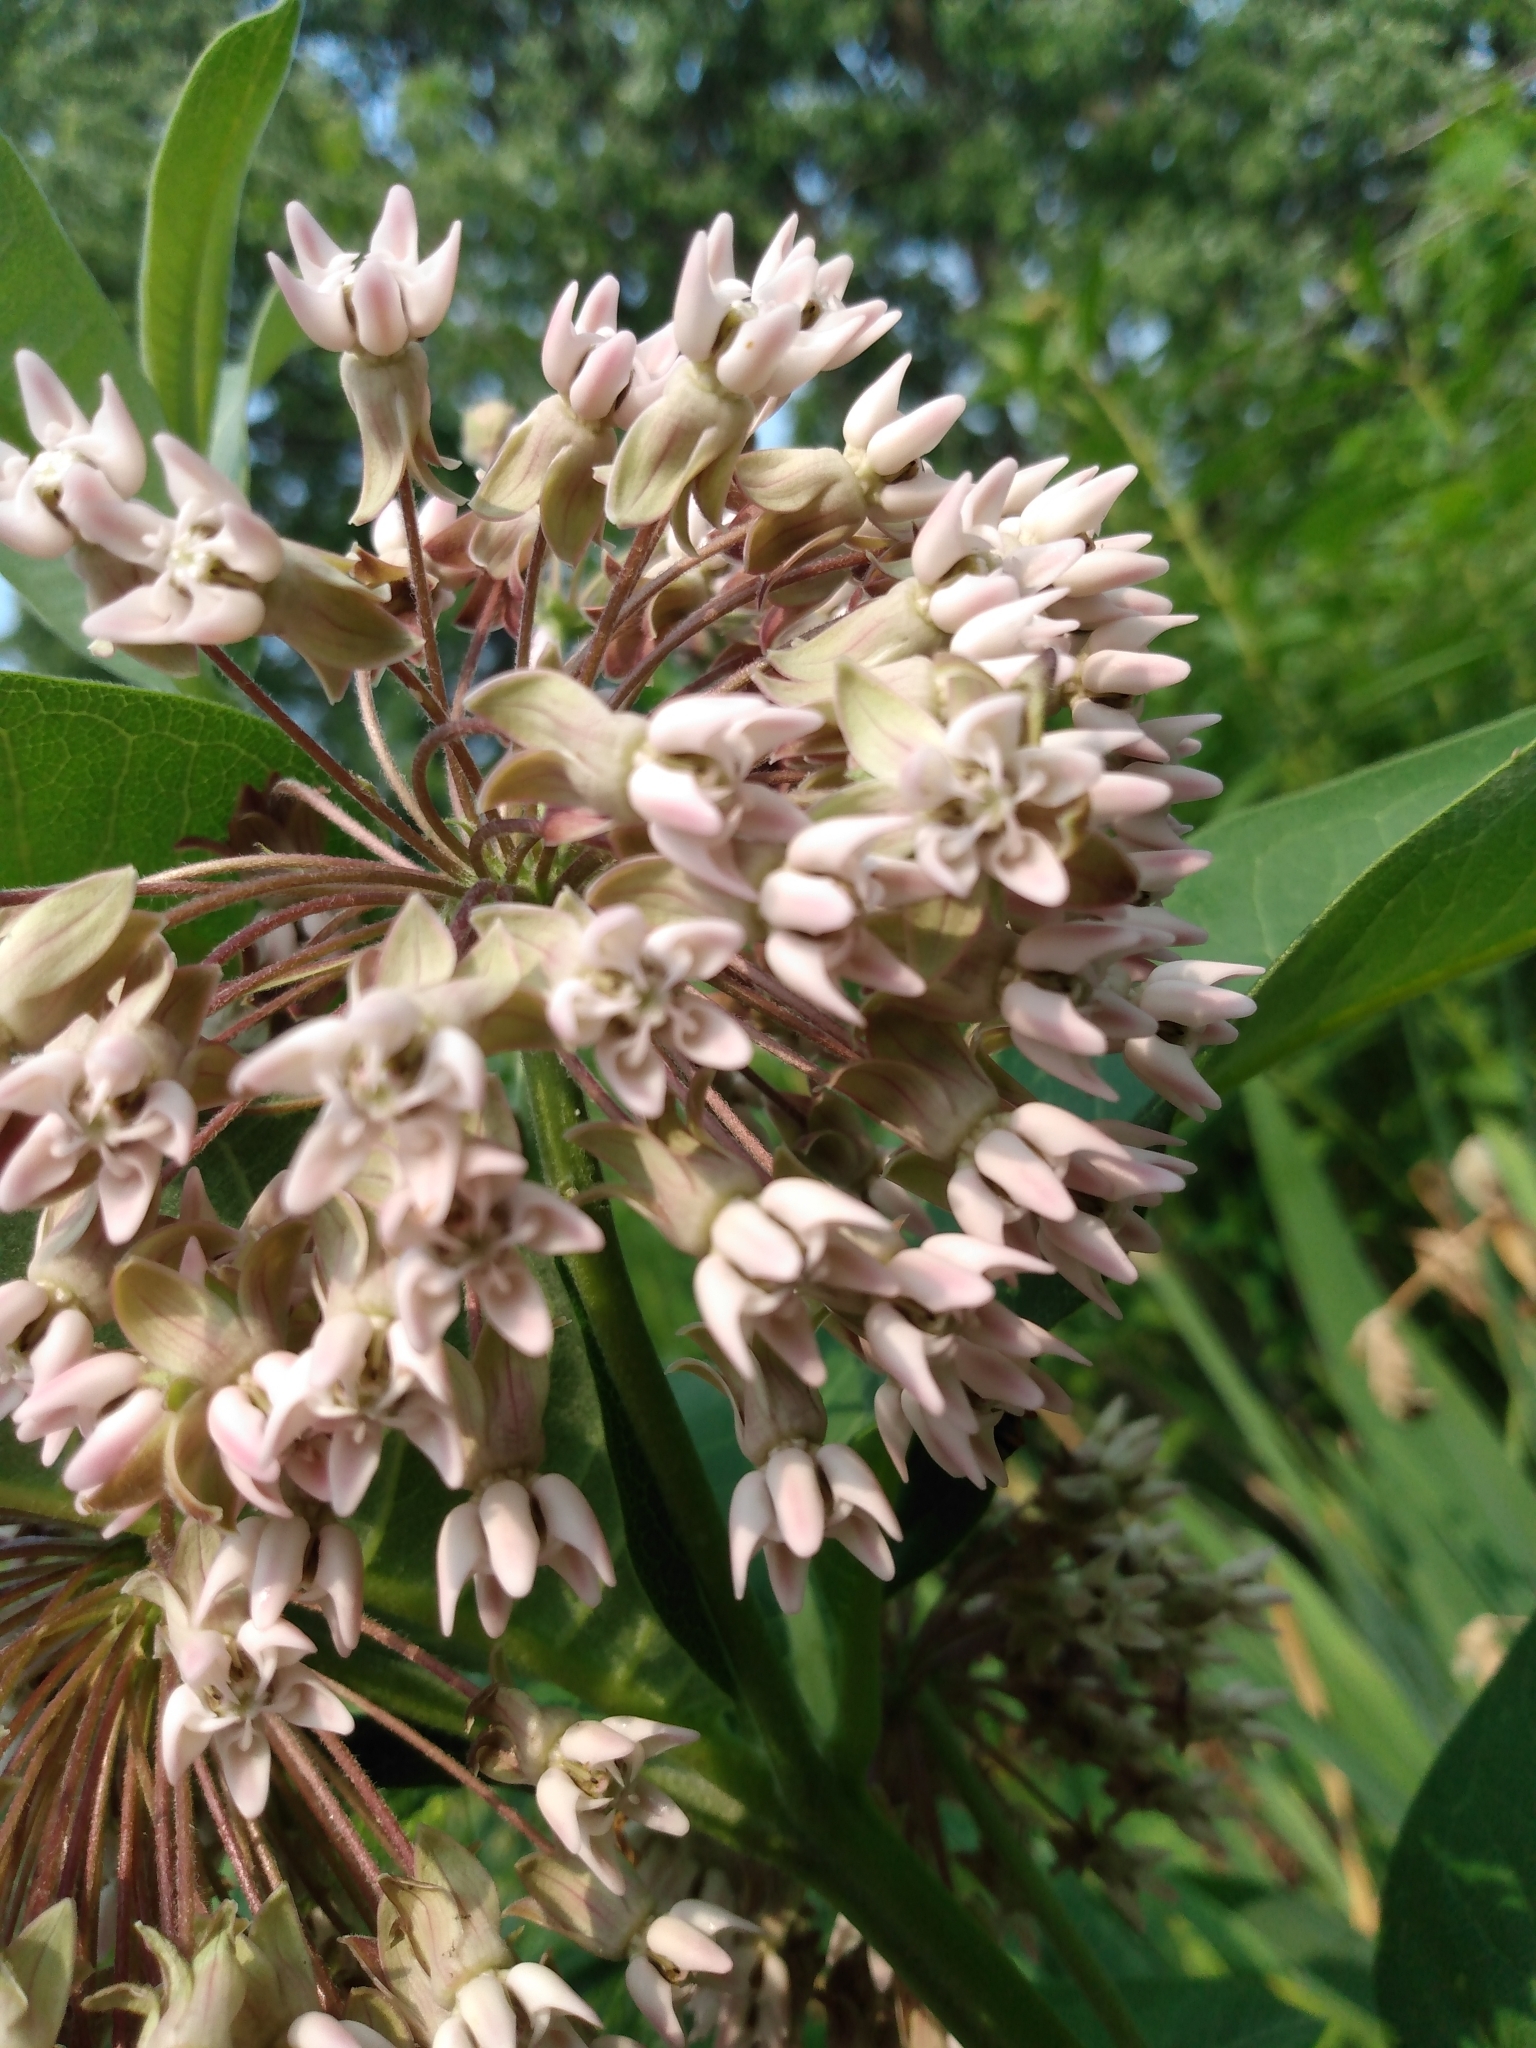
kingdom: Plantae
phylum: Tracheophyta
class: Magnoliopsida
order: Gentianales
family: Apocynaceae
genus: Asclepias
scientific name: Asclepias syriaca
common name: Common milkweed
